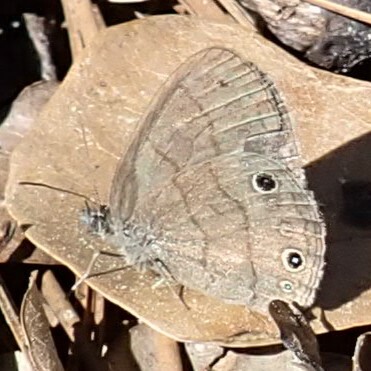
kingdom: Animalia
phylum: Arthropoda
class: Insecta
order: Lepidoptera
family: Nymphalidae
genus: Hermeuptychia
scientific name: Hermeuptychia hermes
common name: Hermes satyr
